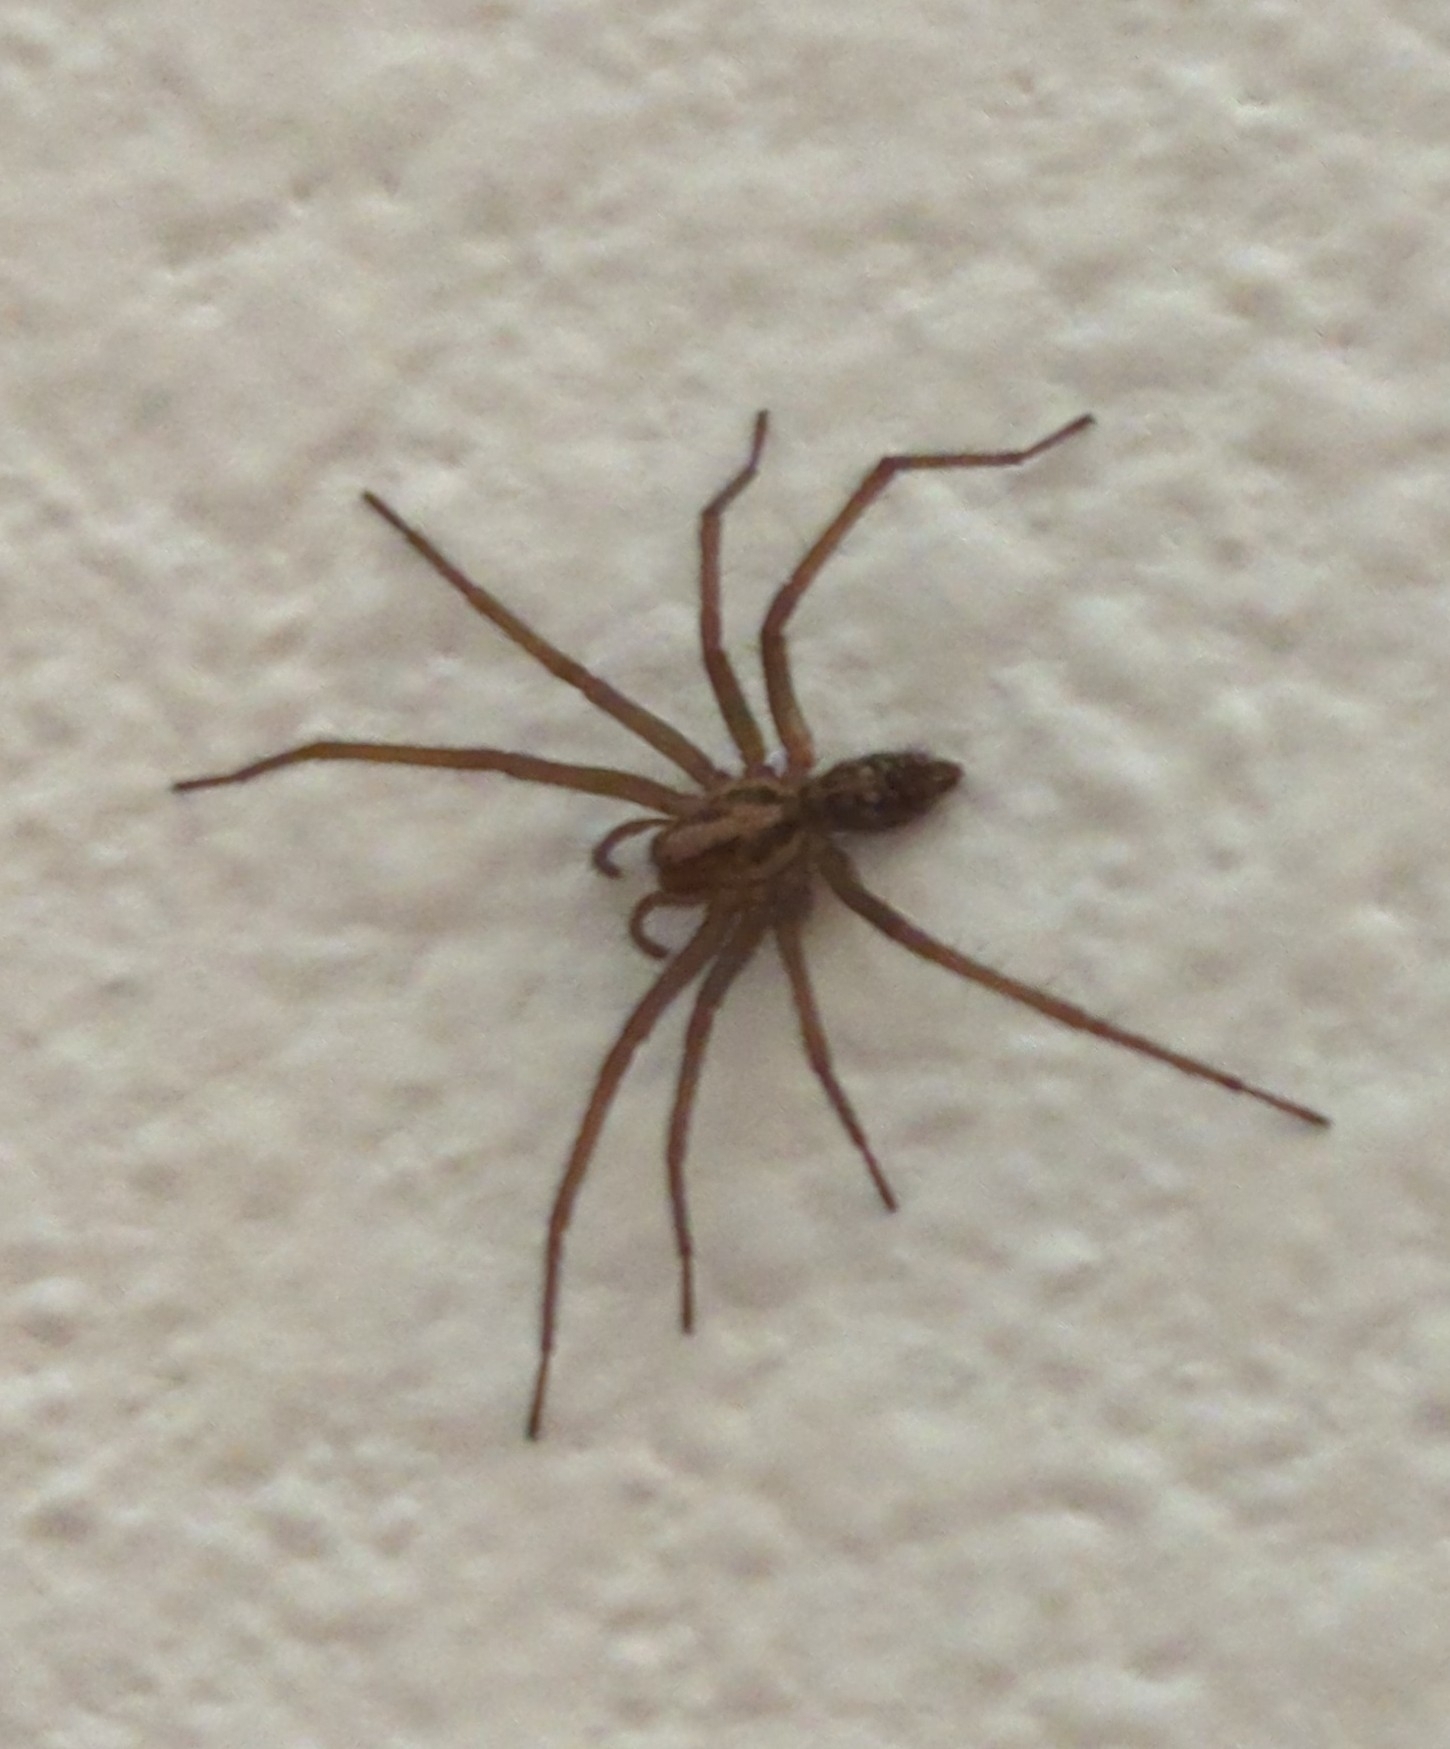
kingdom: Animalia
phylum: Arthropoda
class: Arachnida
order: Araneae
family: Agelenidae
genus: Eratigena
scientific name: Eratigena duellica
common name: Giant house spider
